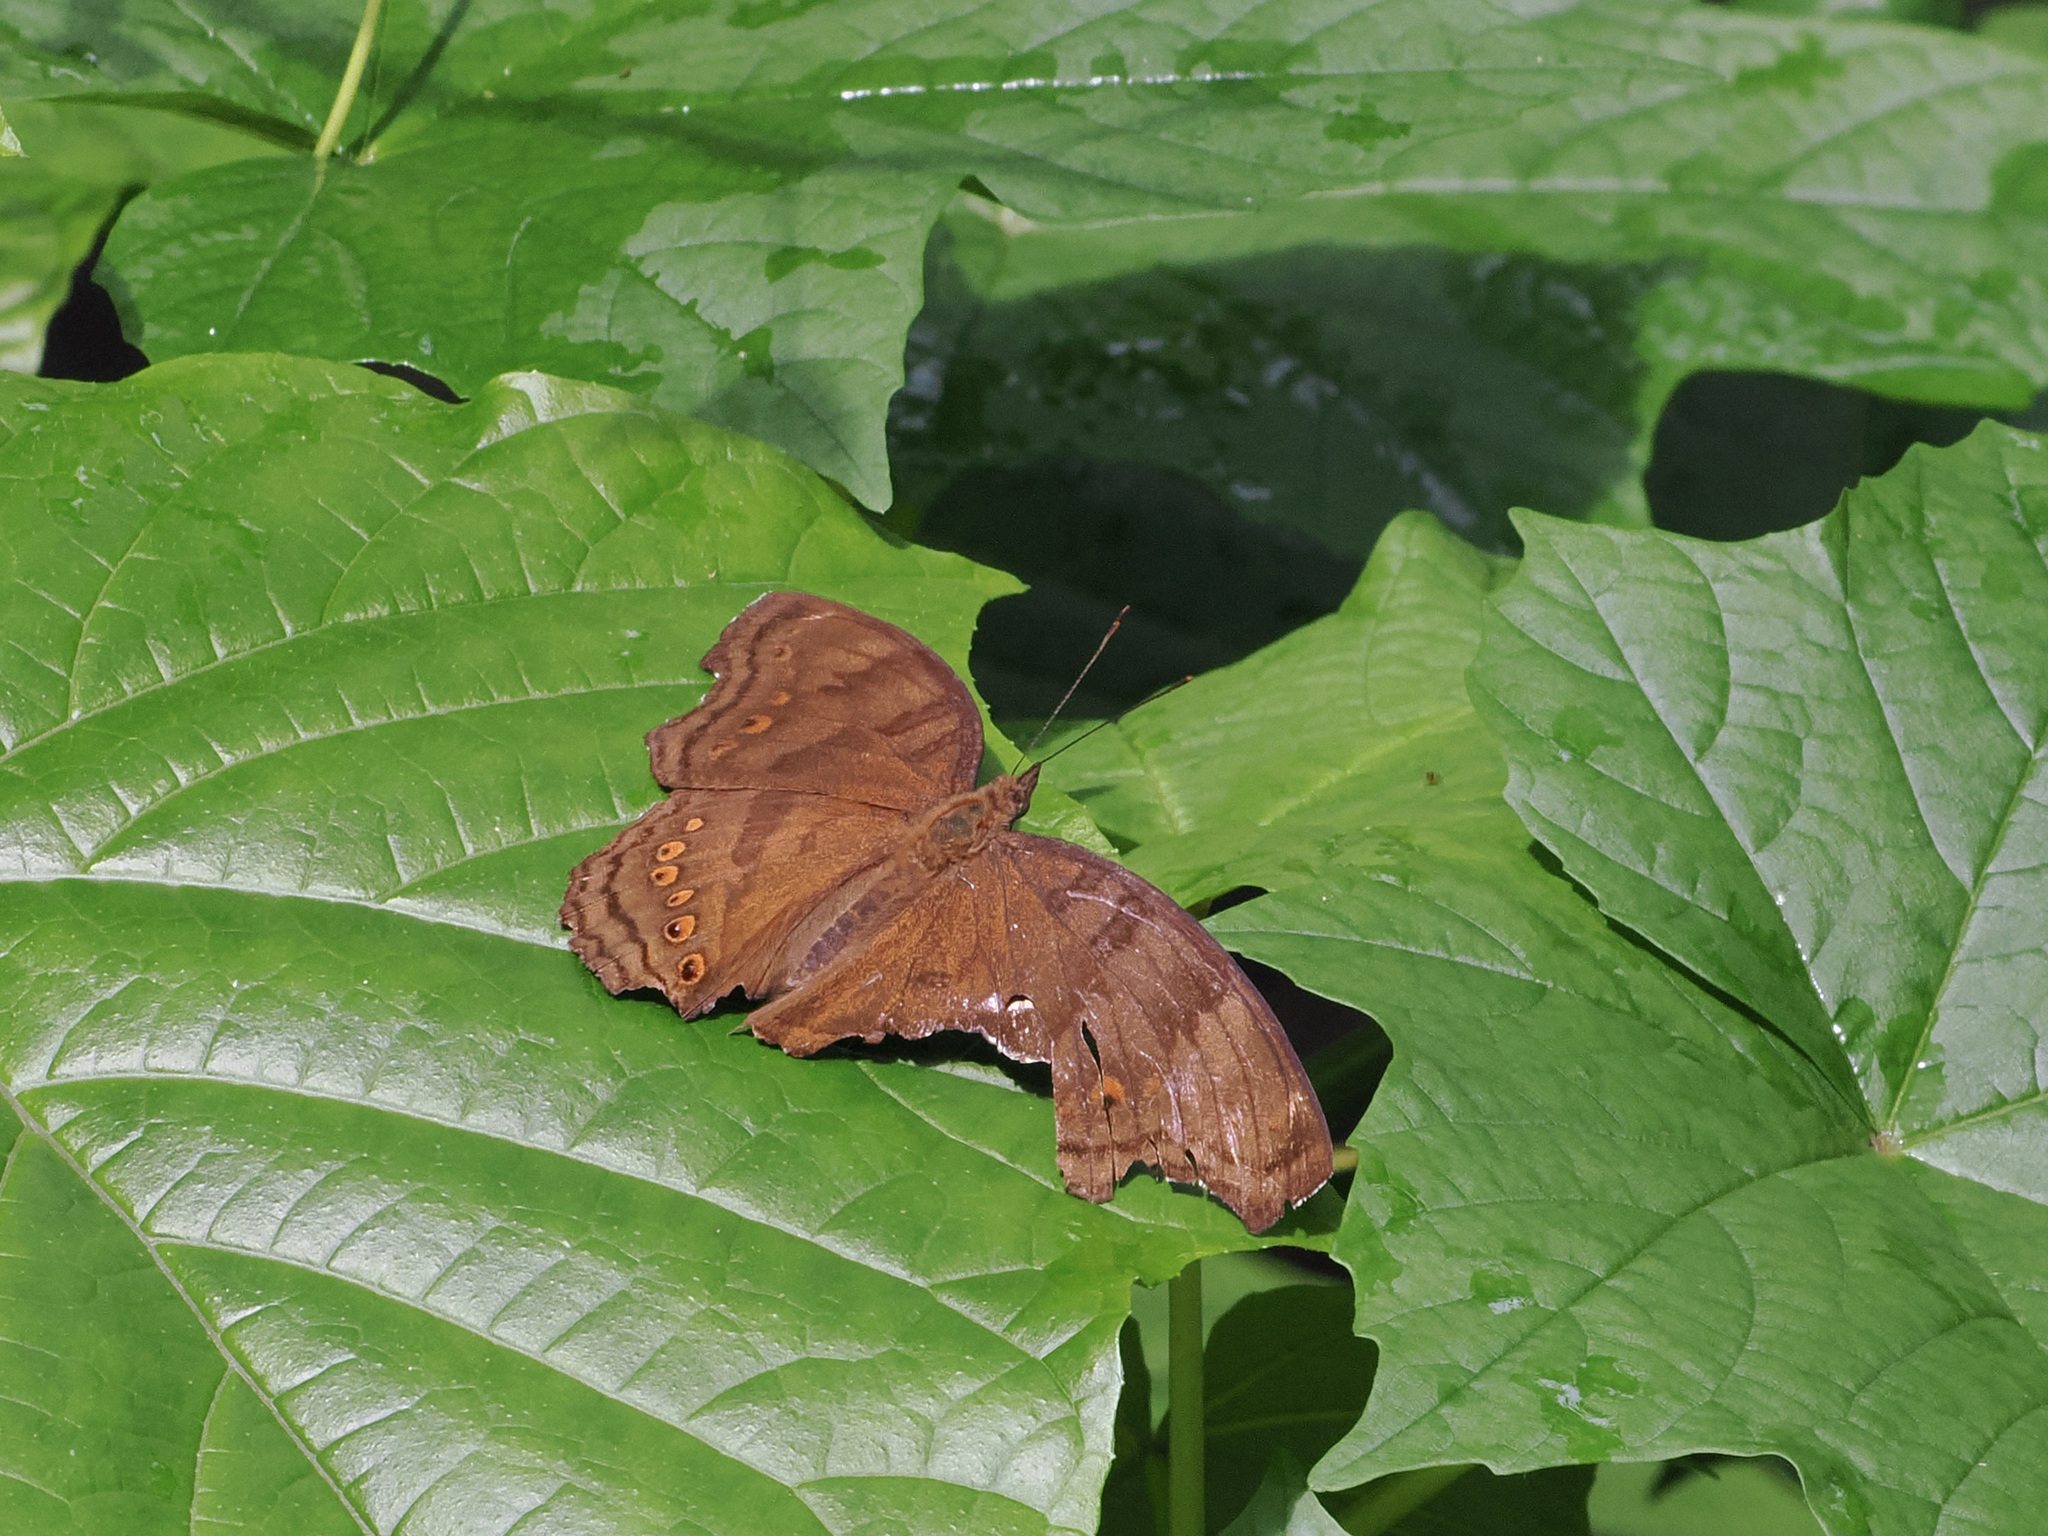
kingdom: Animalia
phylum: Arthropoda
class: Insecta
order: Lepidoptera
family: Nymphalidae
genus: Junonia
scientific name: Junonia
